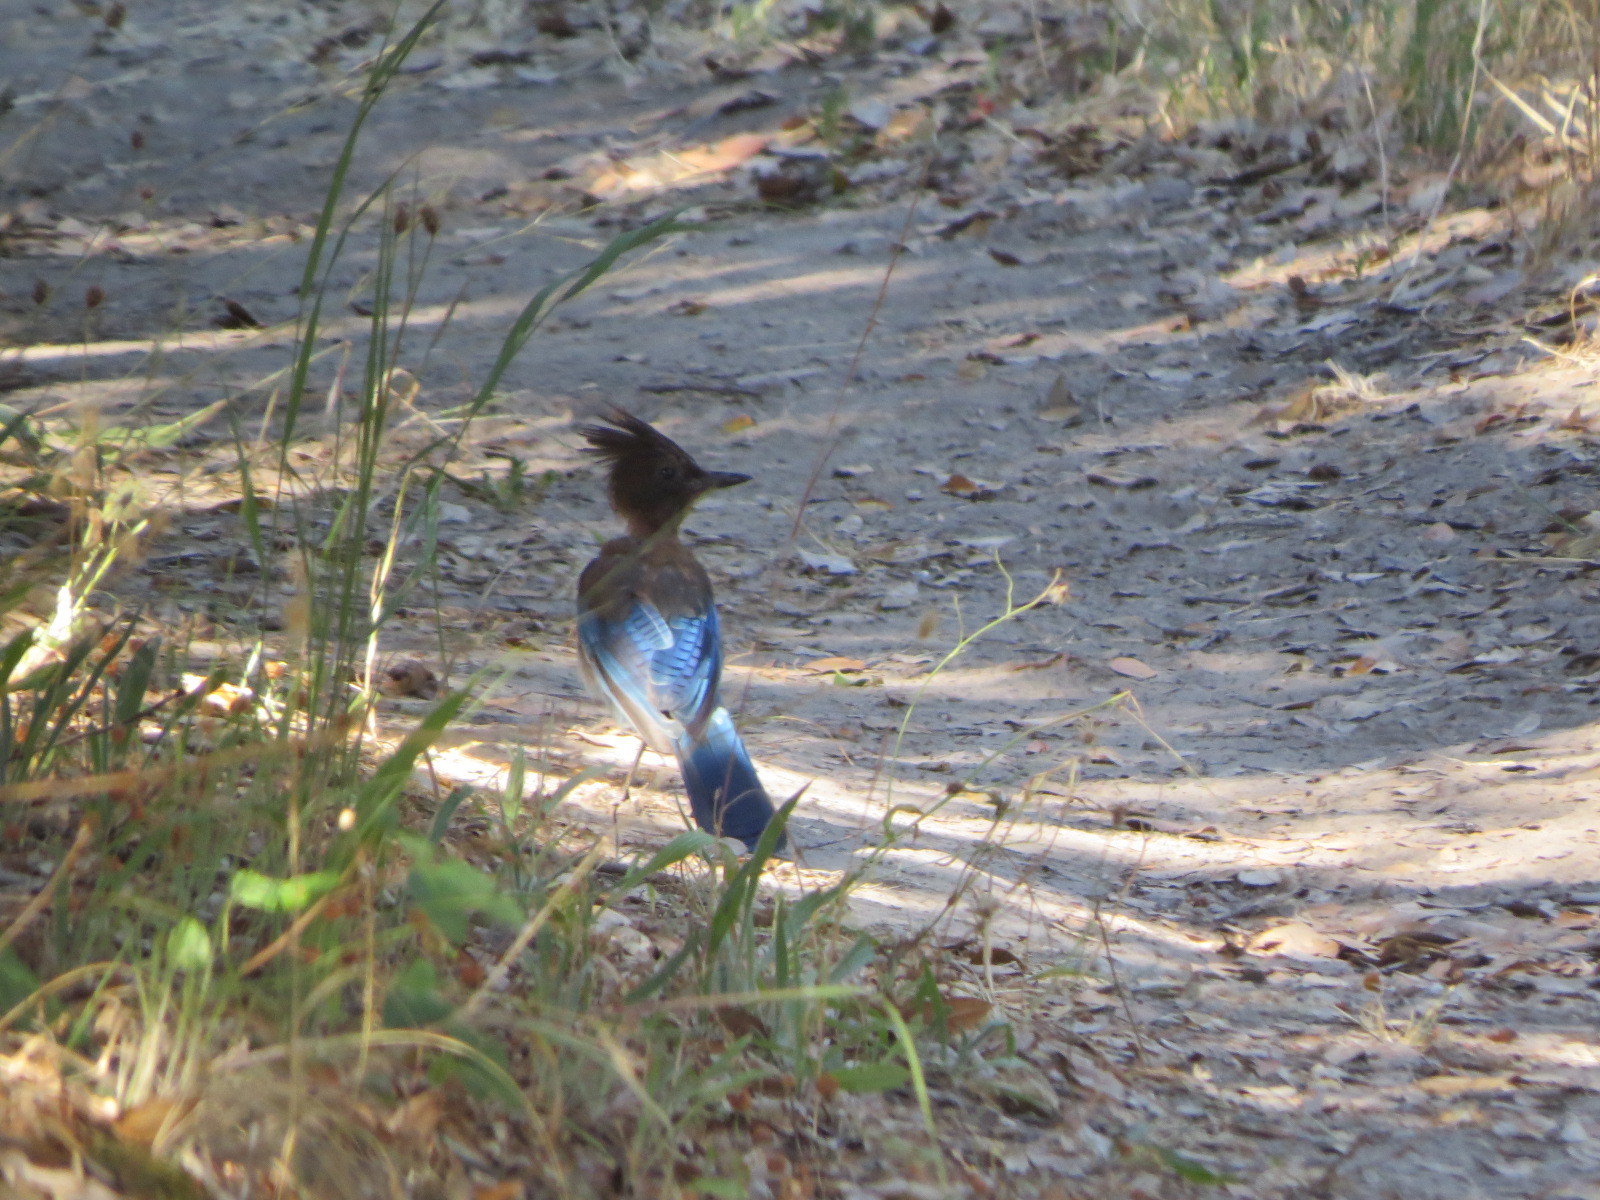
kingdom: Animalia
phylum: Chordata
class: Aves
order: Passeriformes
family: Corvidae
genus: Cyanocitta
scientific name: Cyanocitta stelleri
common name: Steller's jay
